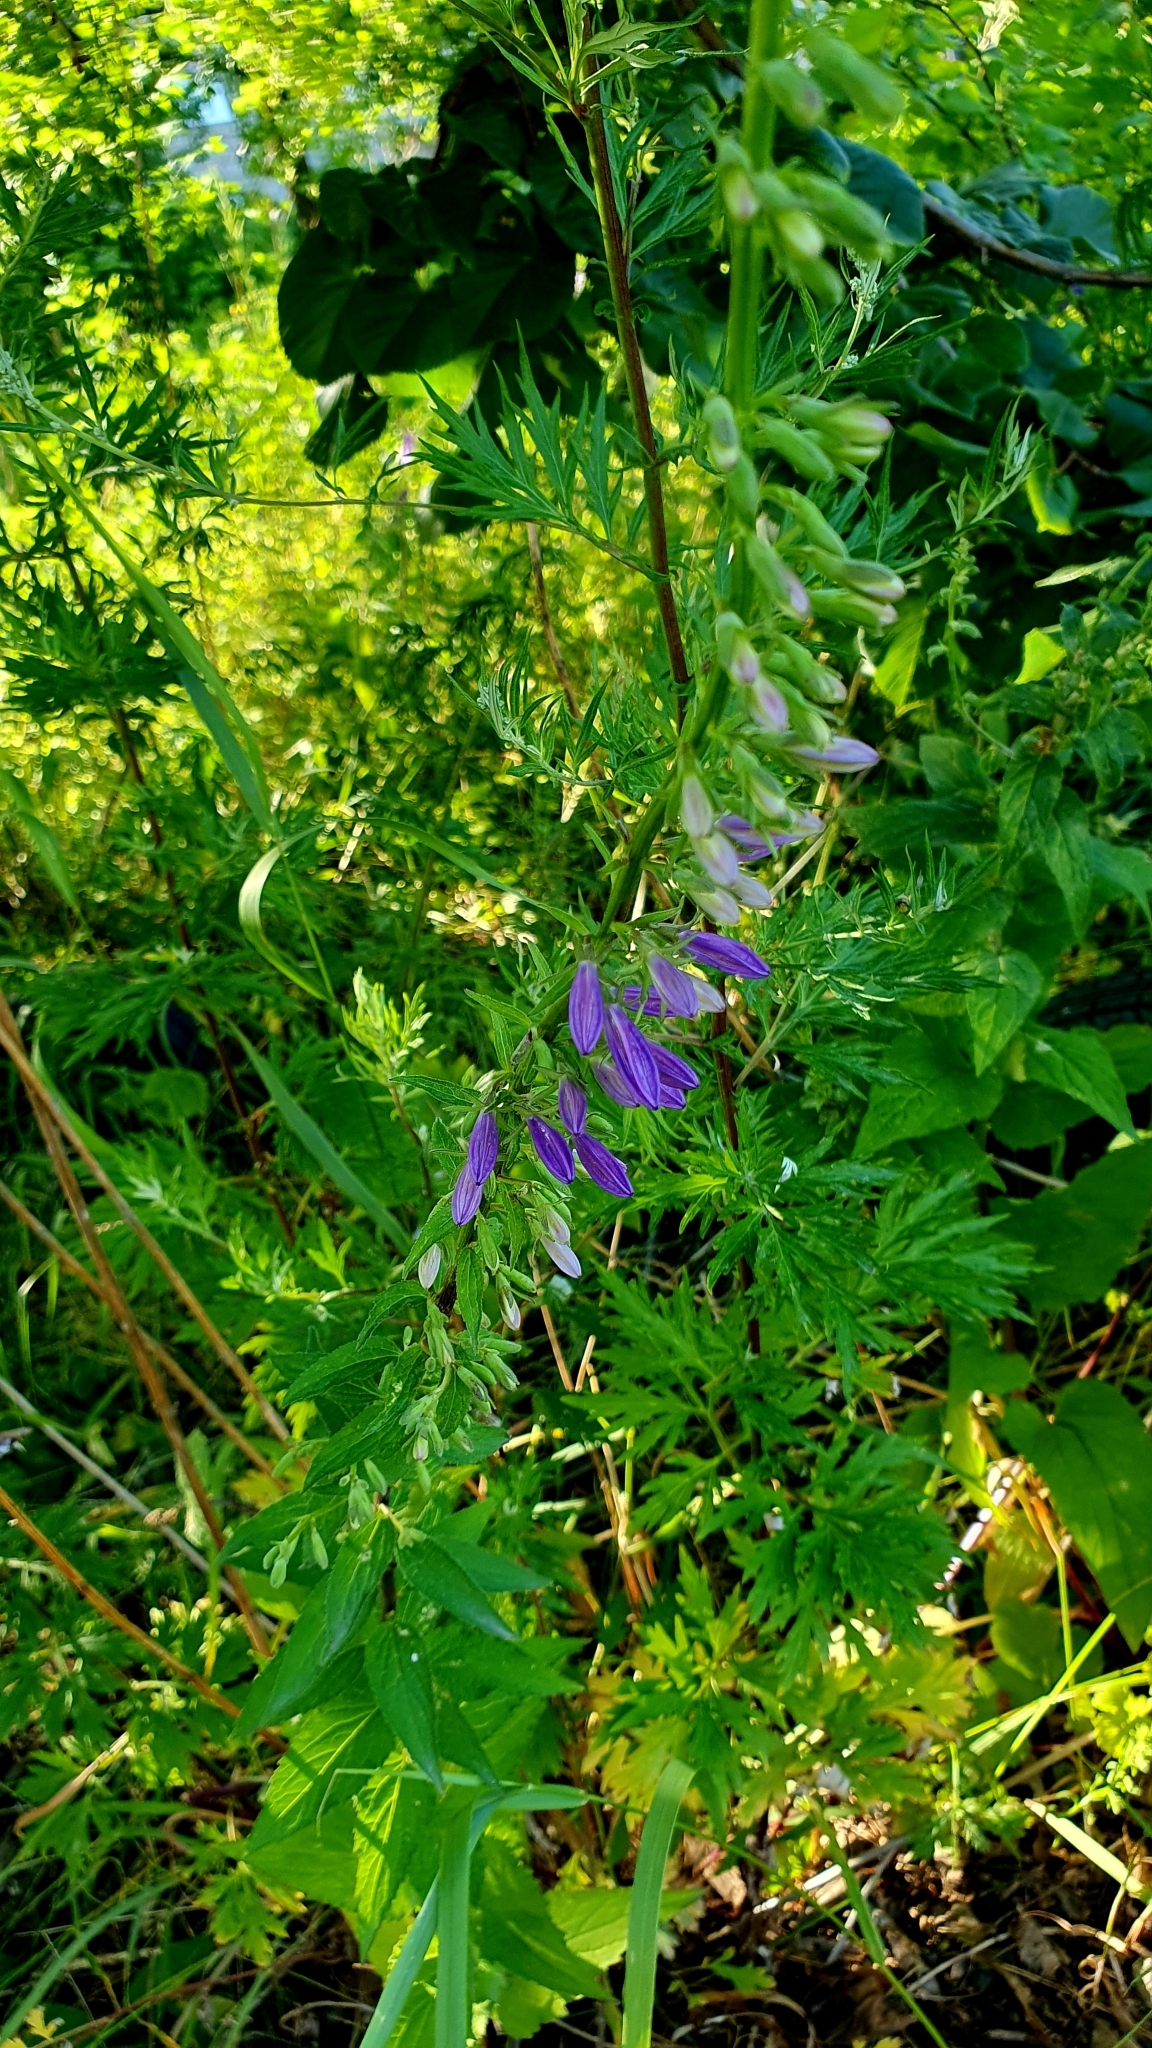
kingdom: Plantae
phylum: Tracheophyta
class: Magnoliopsida
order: Asterales
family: Campanulaceae
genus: Campanula
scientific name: Campanula rapunculoides
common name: Creeping bellflower
